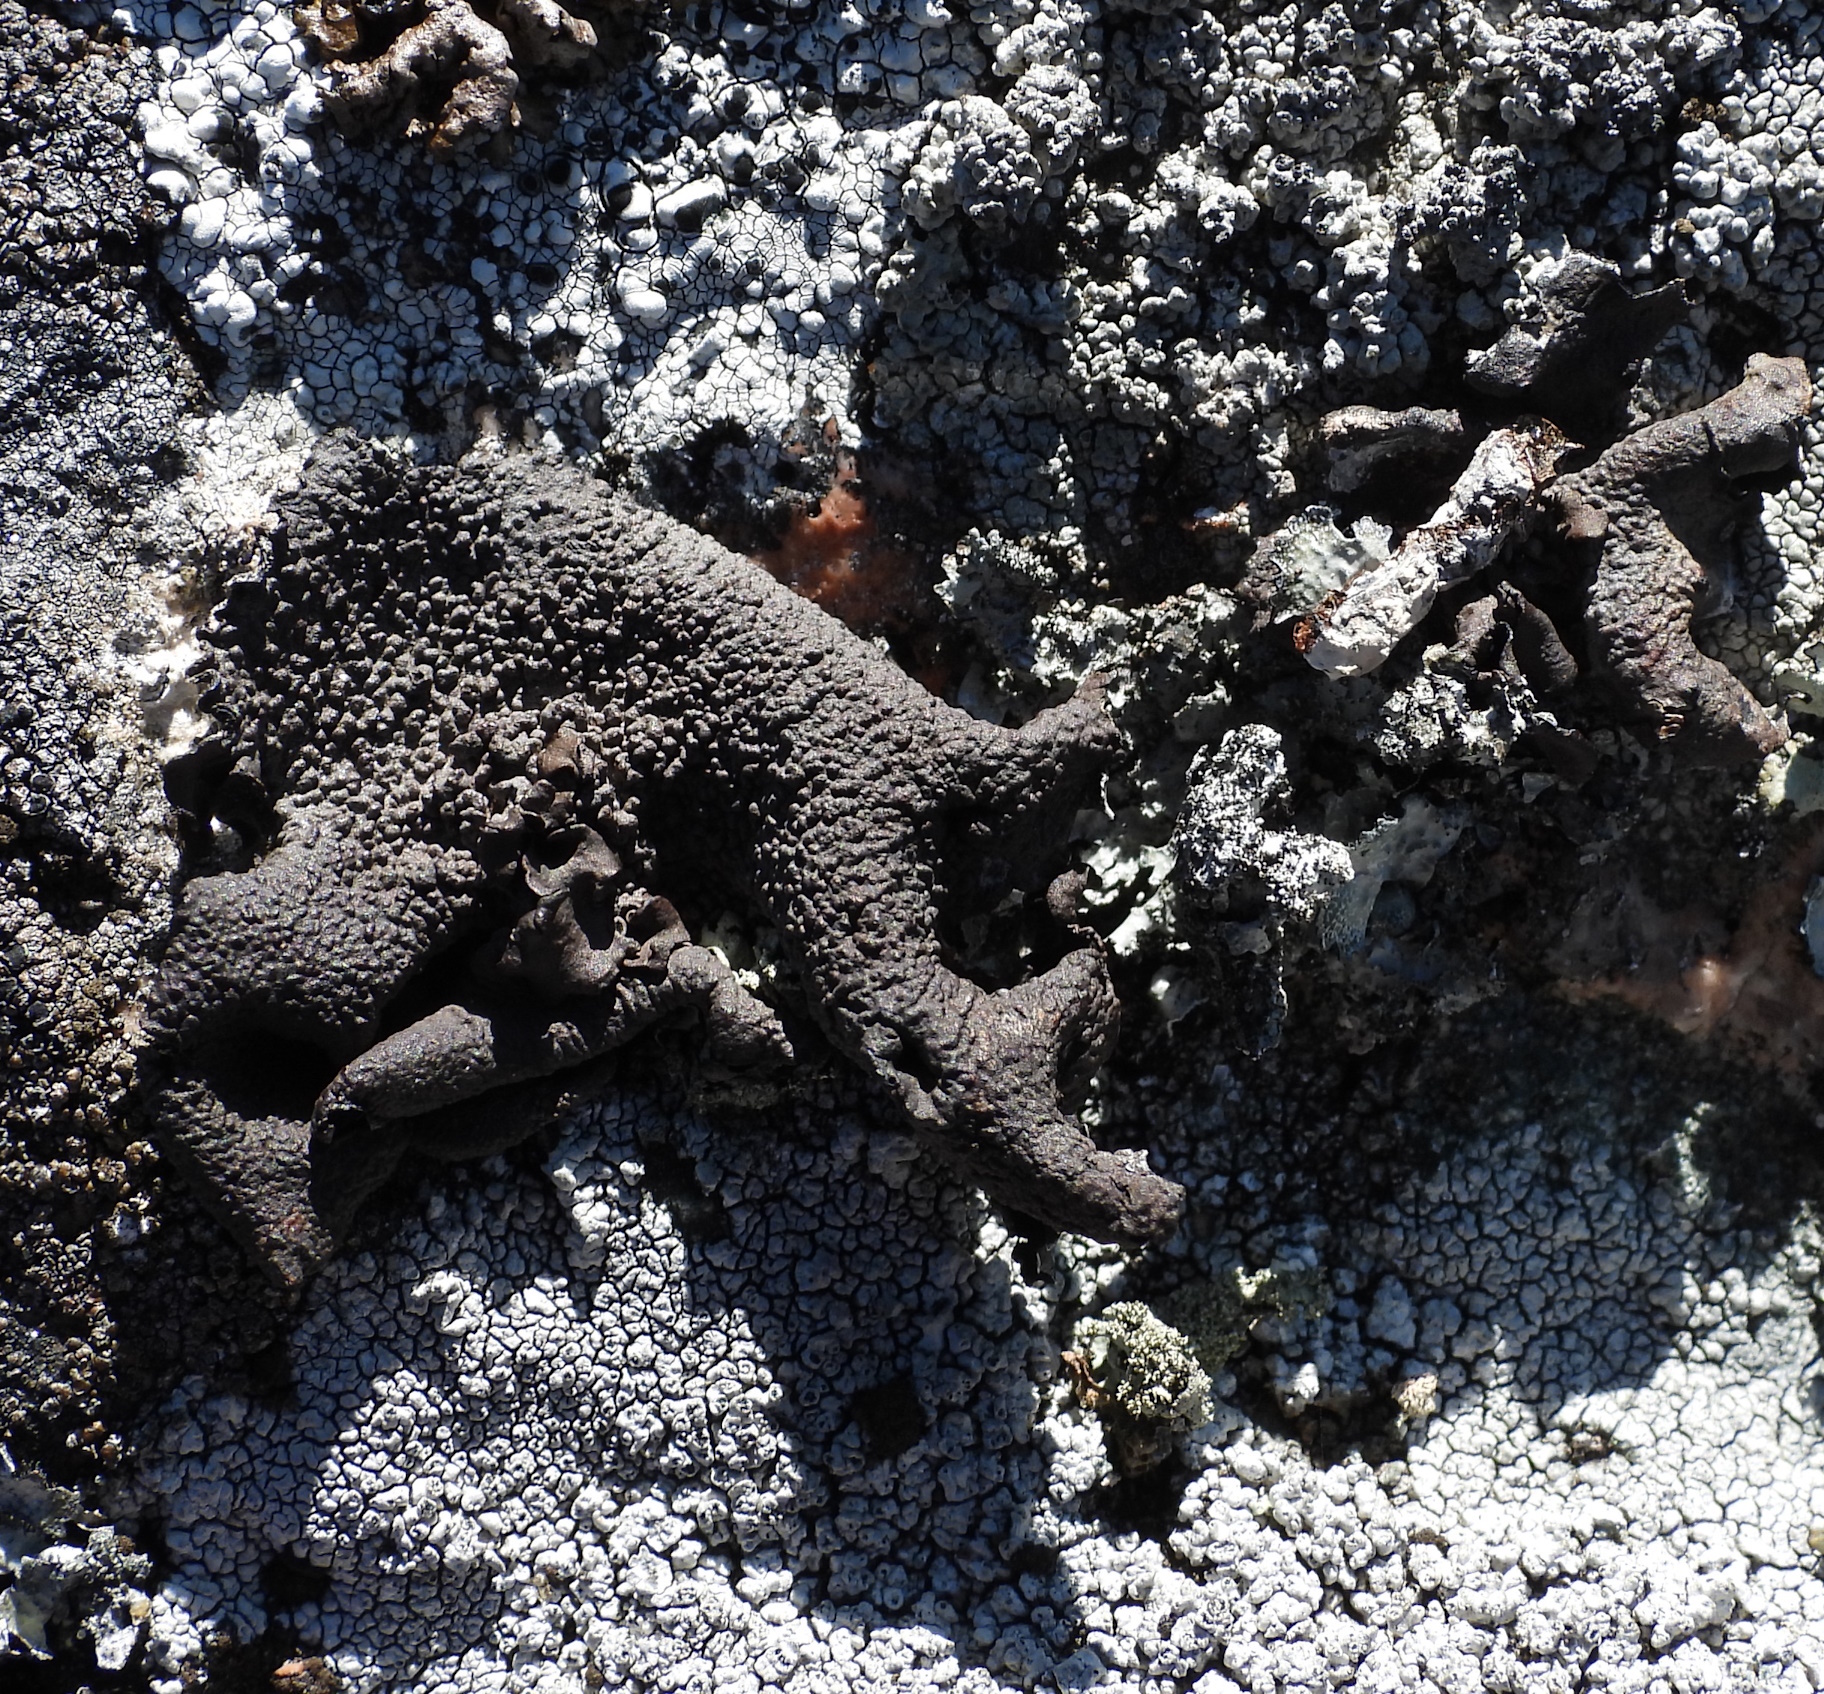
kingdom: Fungi
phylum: Ascomycota
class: Lecanoromycetes
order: Umbilicariales
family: Umbilicariaceae
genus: Umbilicaria
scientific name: Umbilicaria nylanderiana
